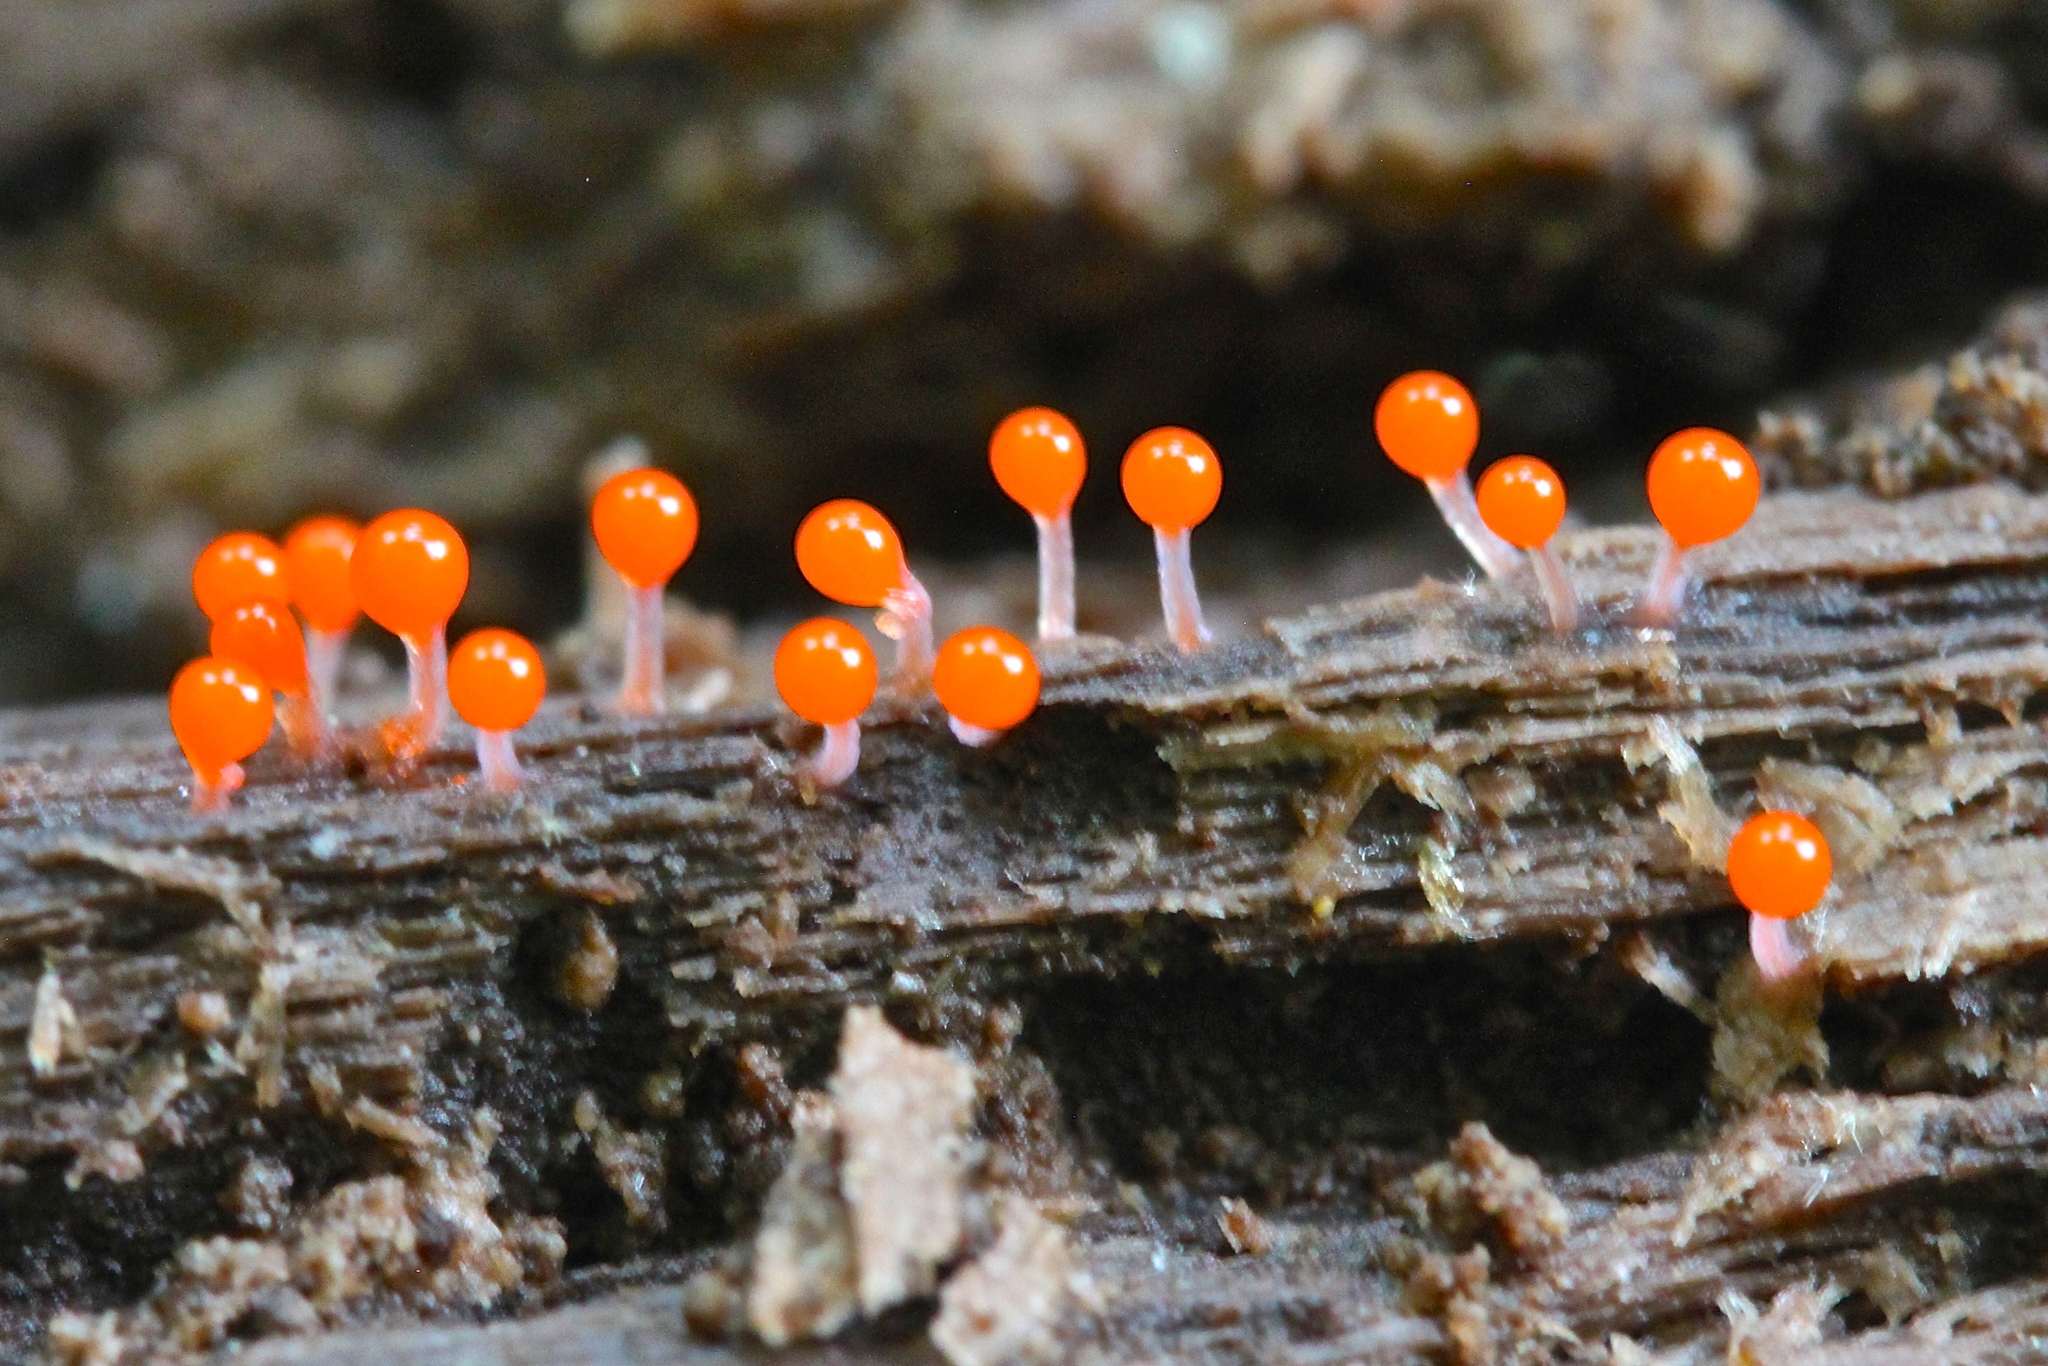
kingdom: Protozoa
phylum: Mycetozoa
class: Myxomycetes
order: Trichiales
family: Arcyriaceae
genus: Hemitrichia
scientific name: Hemitrichia calyculata
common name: Push pin slime mold
